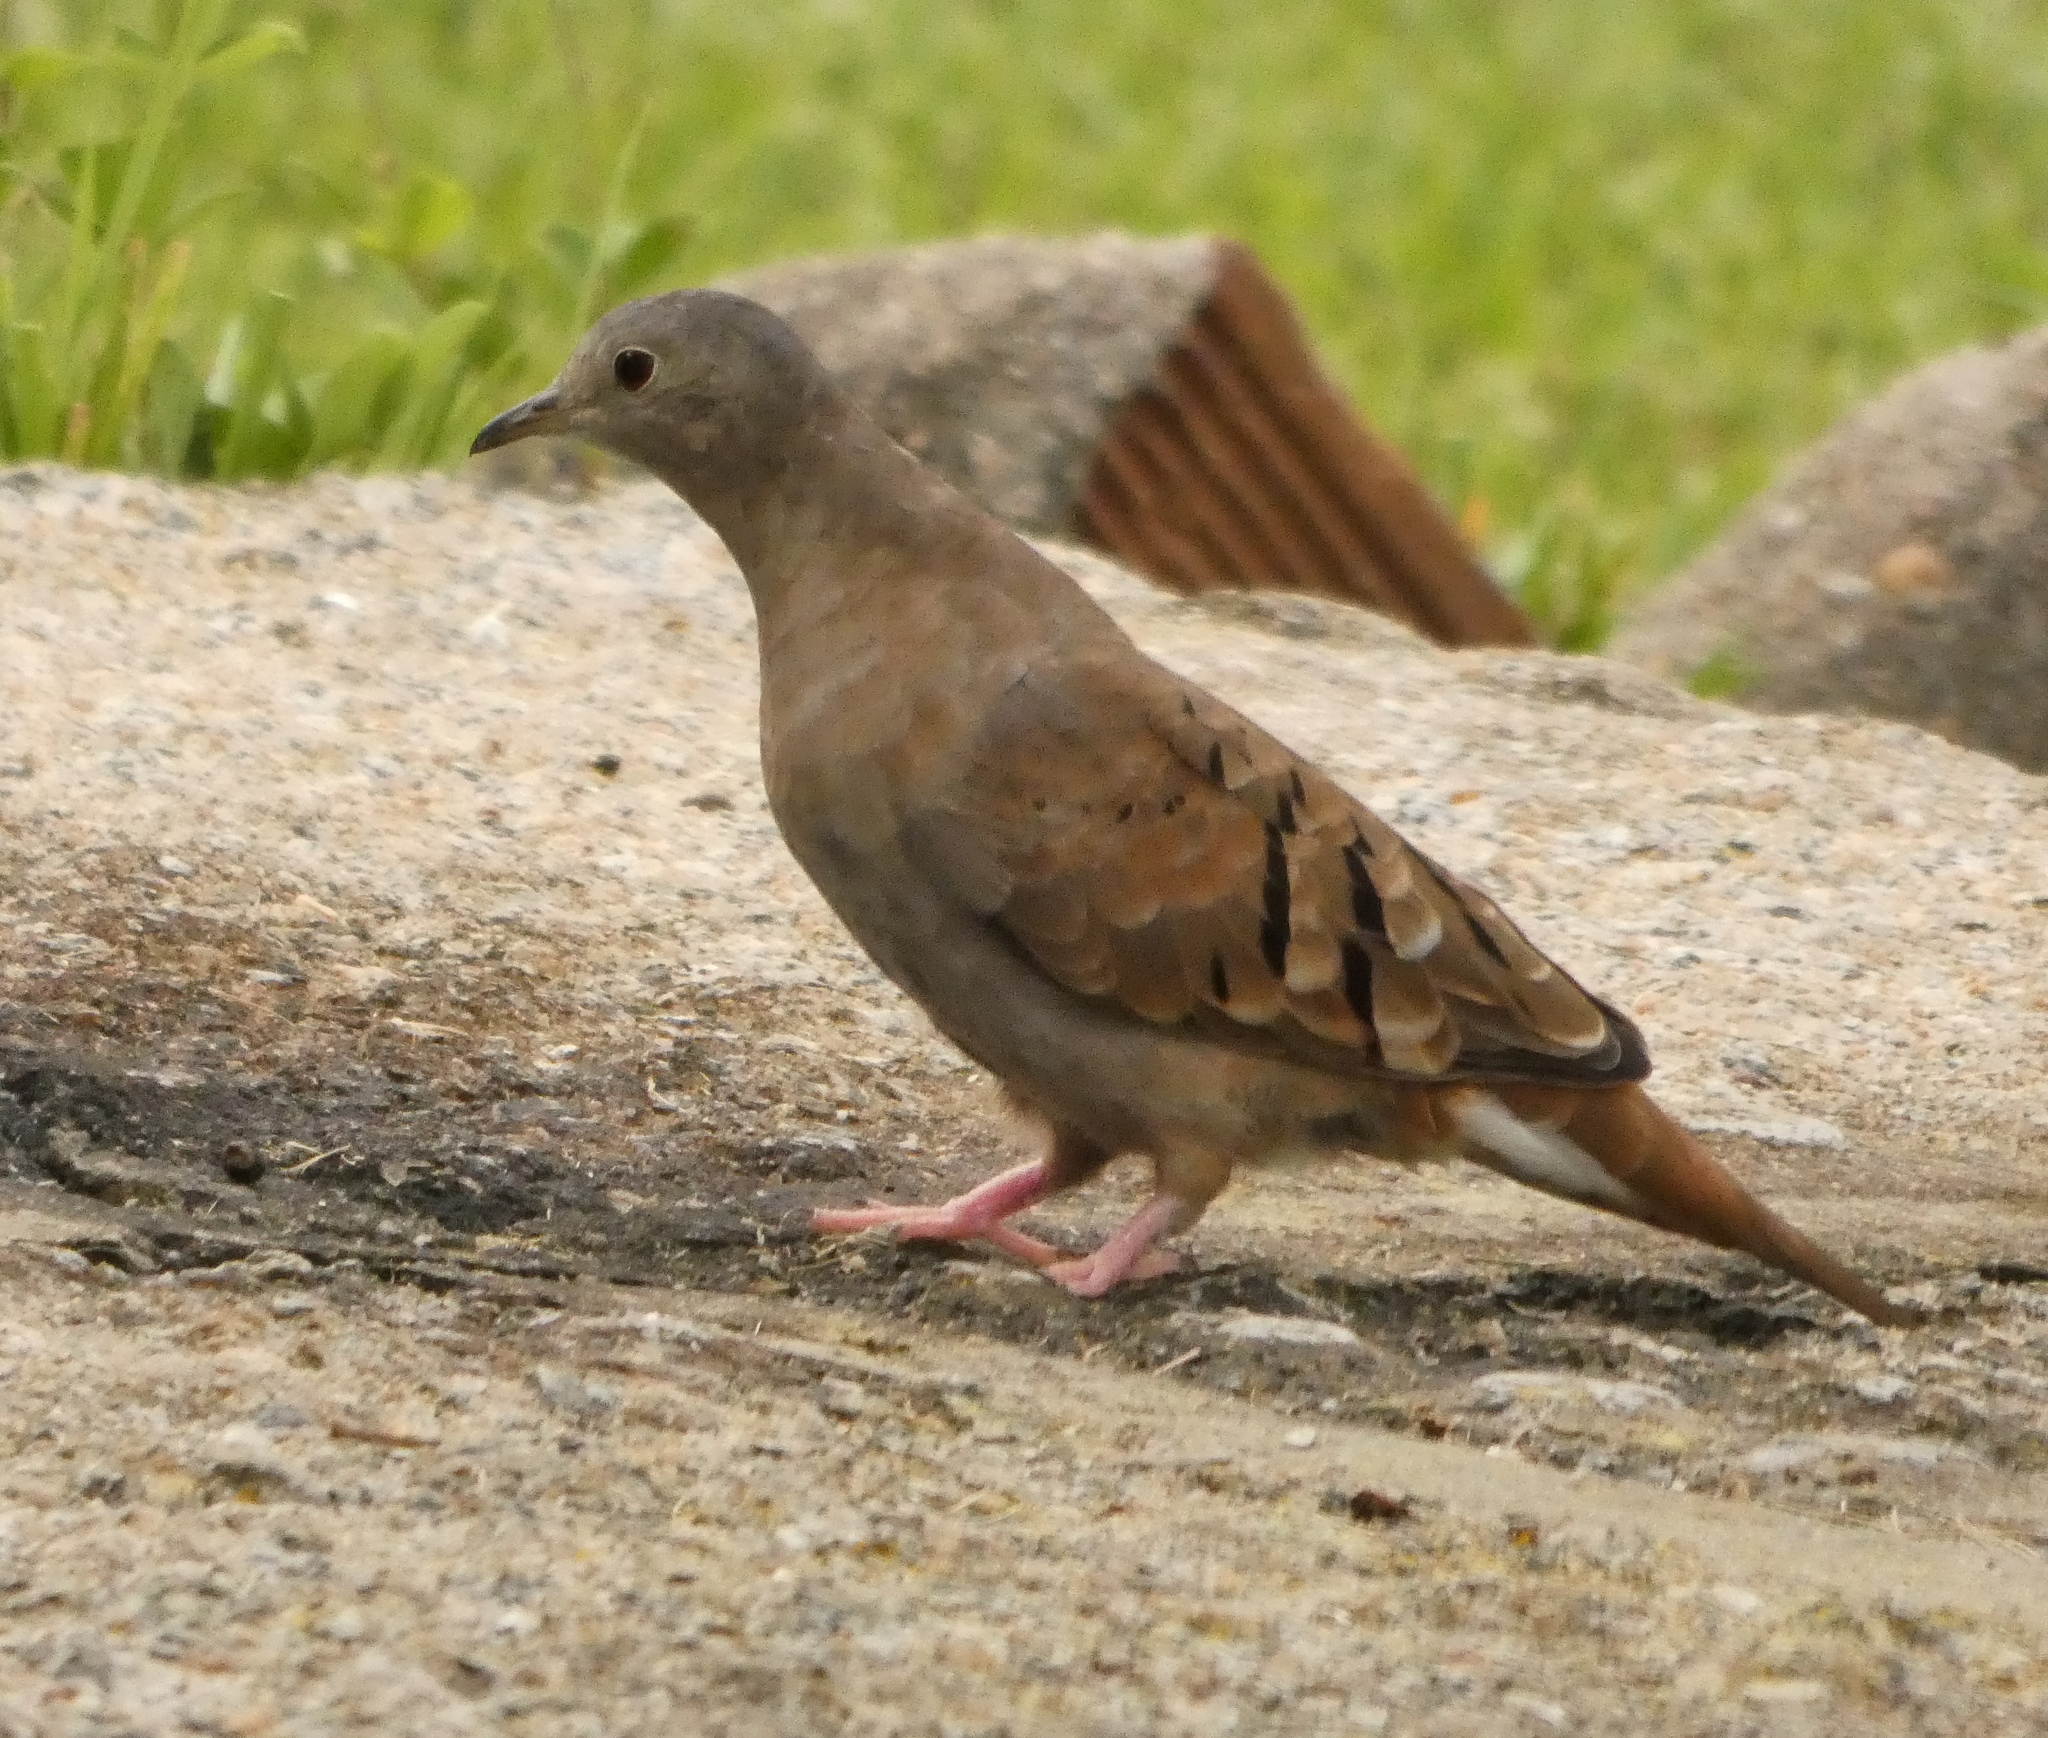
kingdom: Animalia
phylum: Chordata
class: Aves
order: Columbiformes
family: Columbidae
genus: Columbina
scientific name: Columbina talpacoti
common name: Ruddy ground dove
